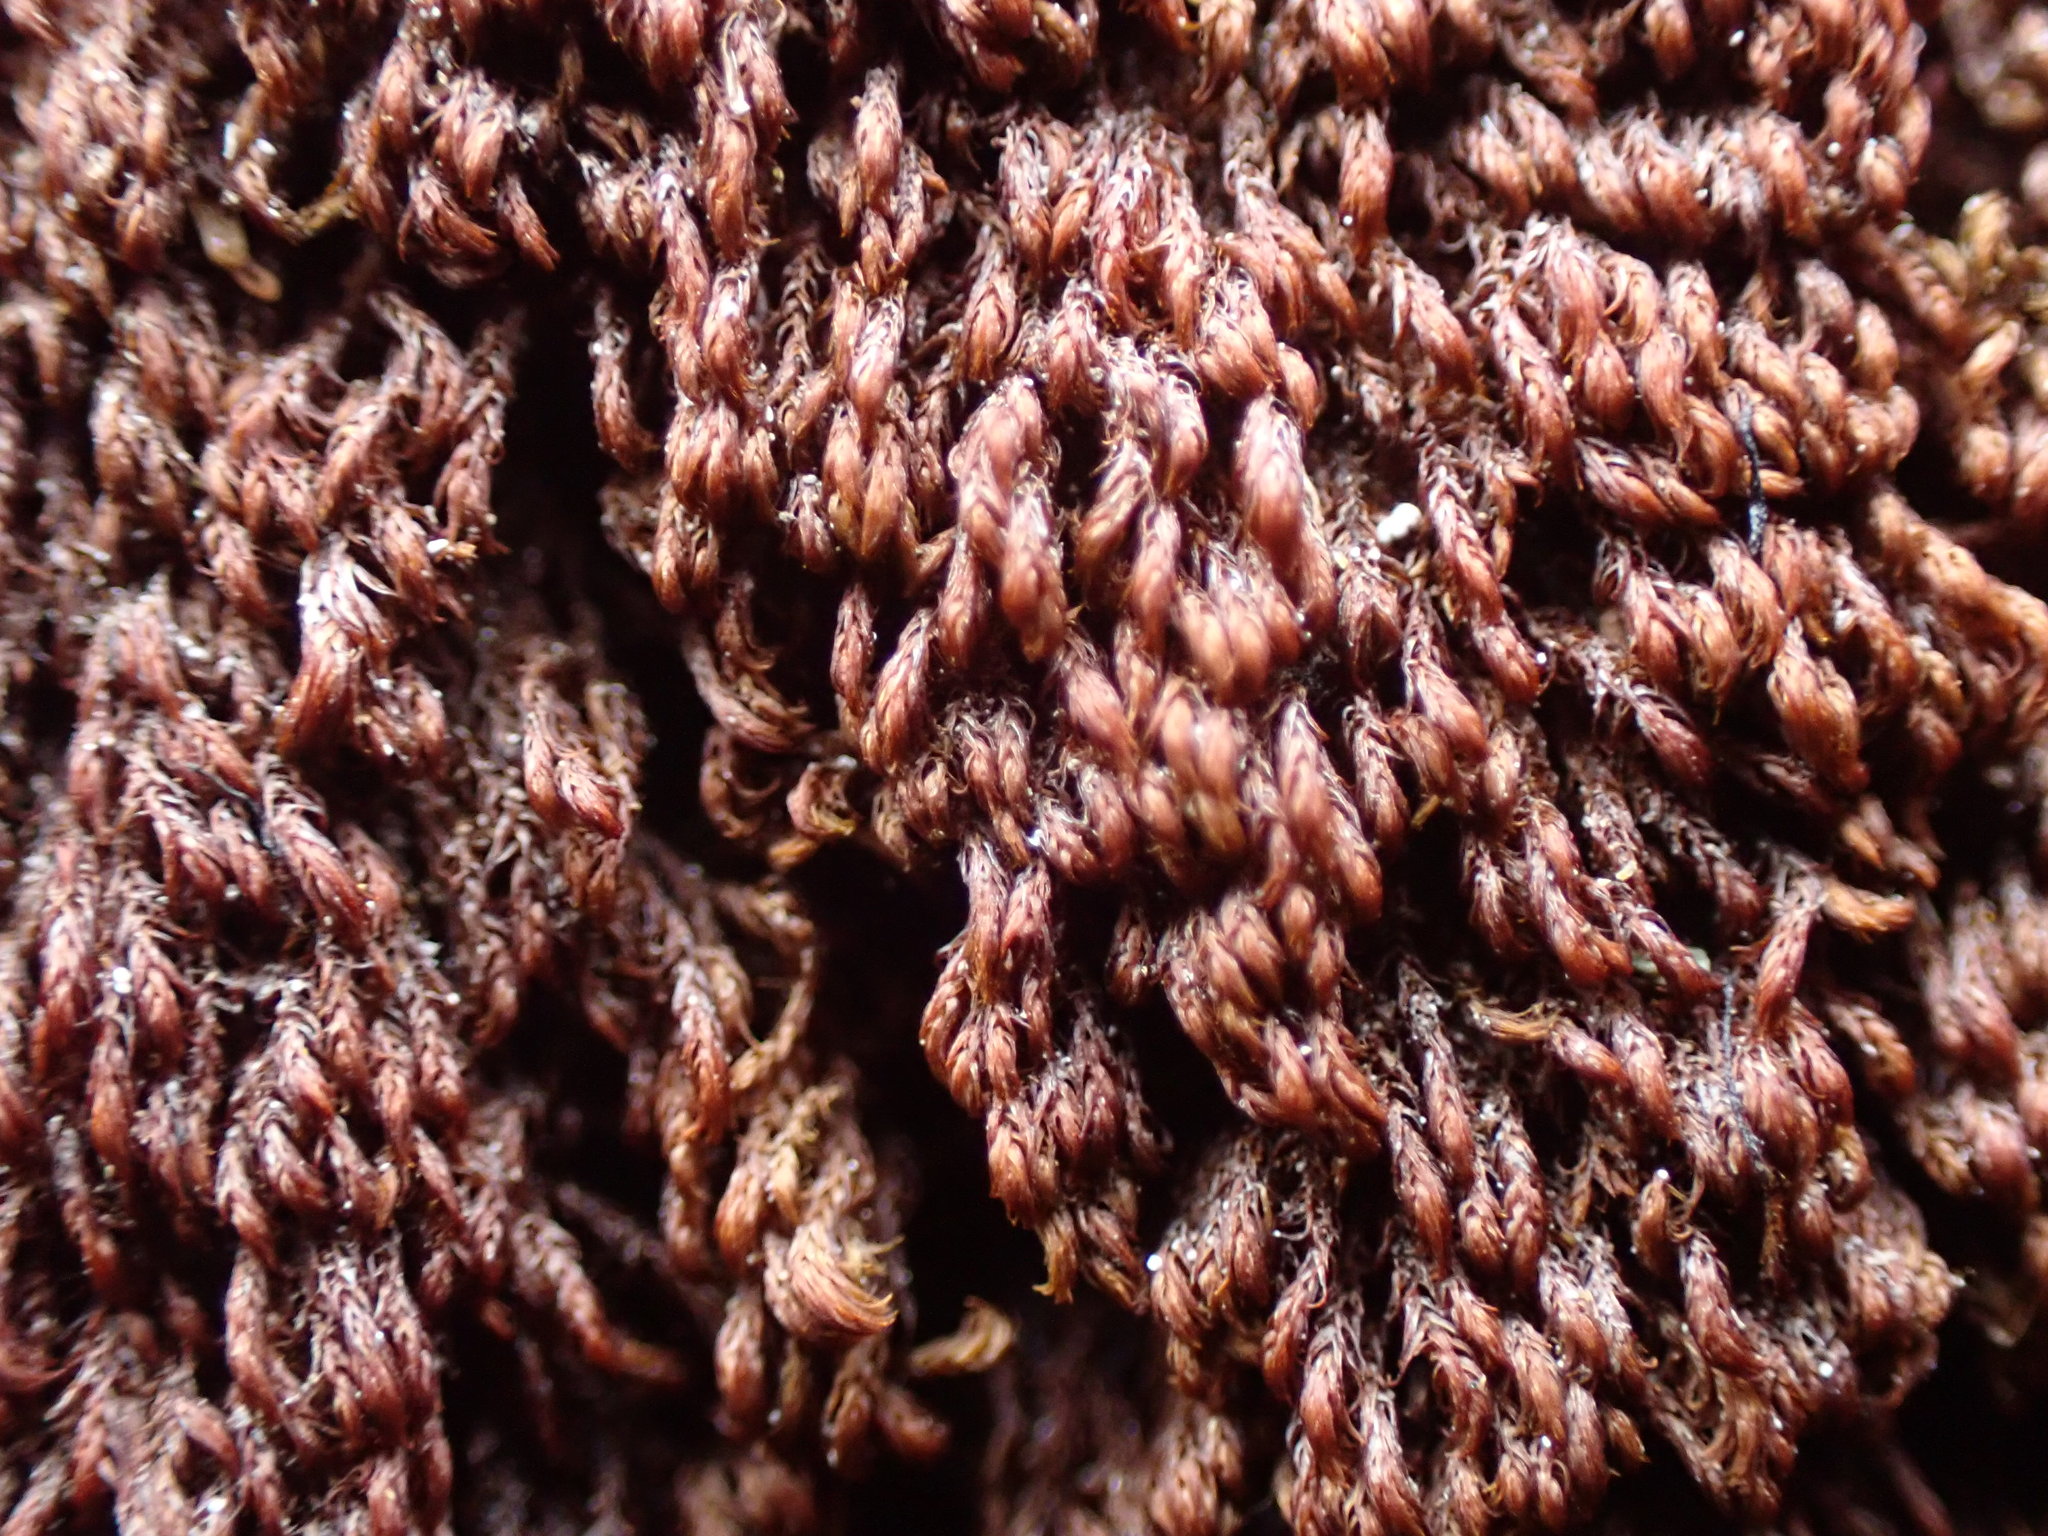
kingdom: Plantae
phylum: Bryophyta
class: Andreaeopsida
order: Andreaeales
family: Andreaeaceae
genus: Andreaea
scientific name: Andreaea nivalis
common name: Snow rock moss
